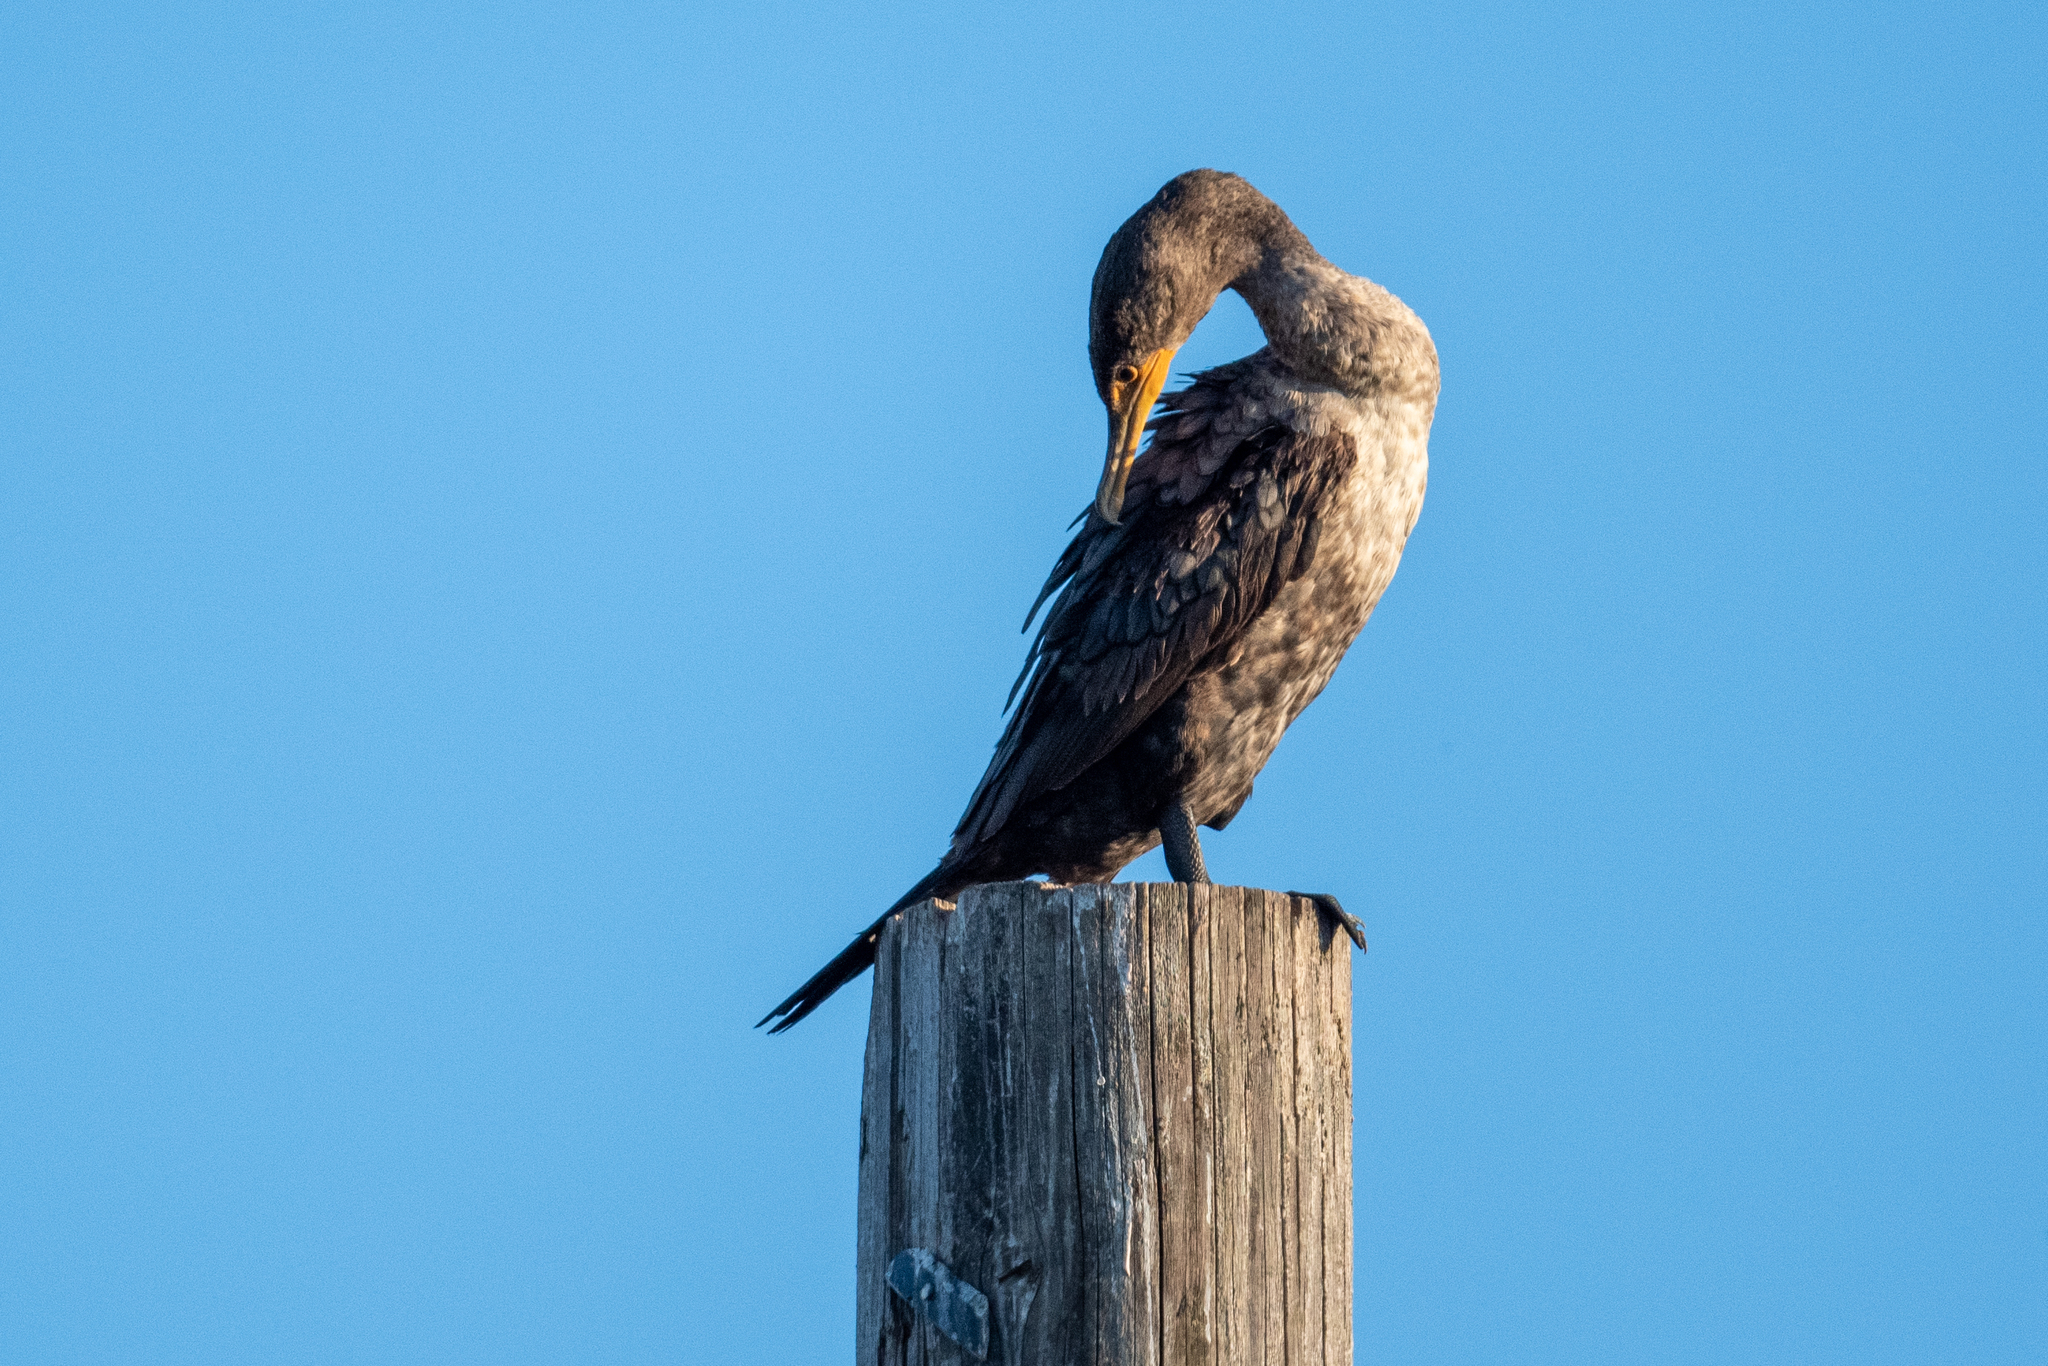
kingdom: Animalia
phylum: Chordata
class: Aves
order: Suliformes
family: Phalacrocoracidae
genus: Phalacrocorax
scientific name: Phalacrocorax auritus
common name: Double-crested cormorant
